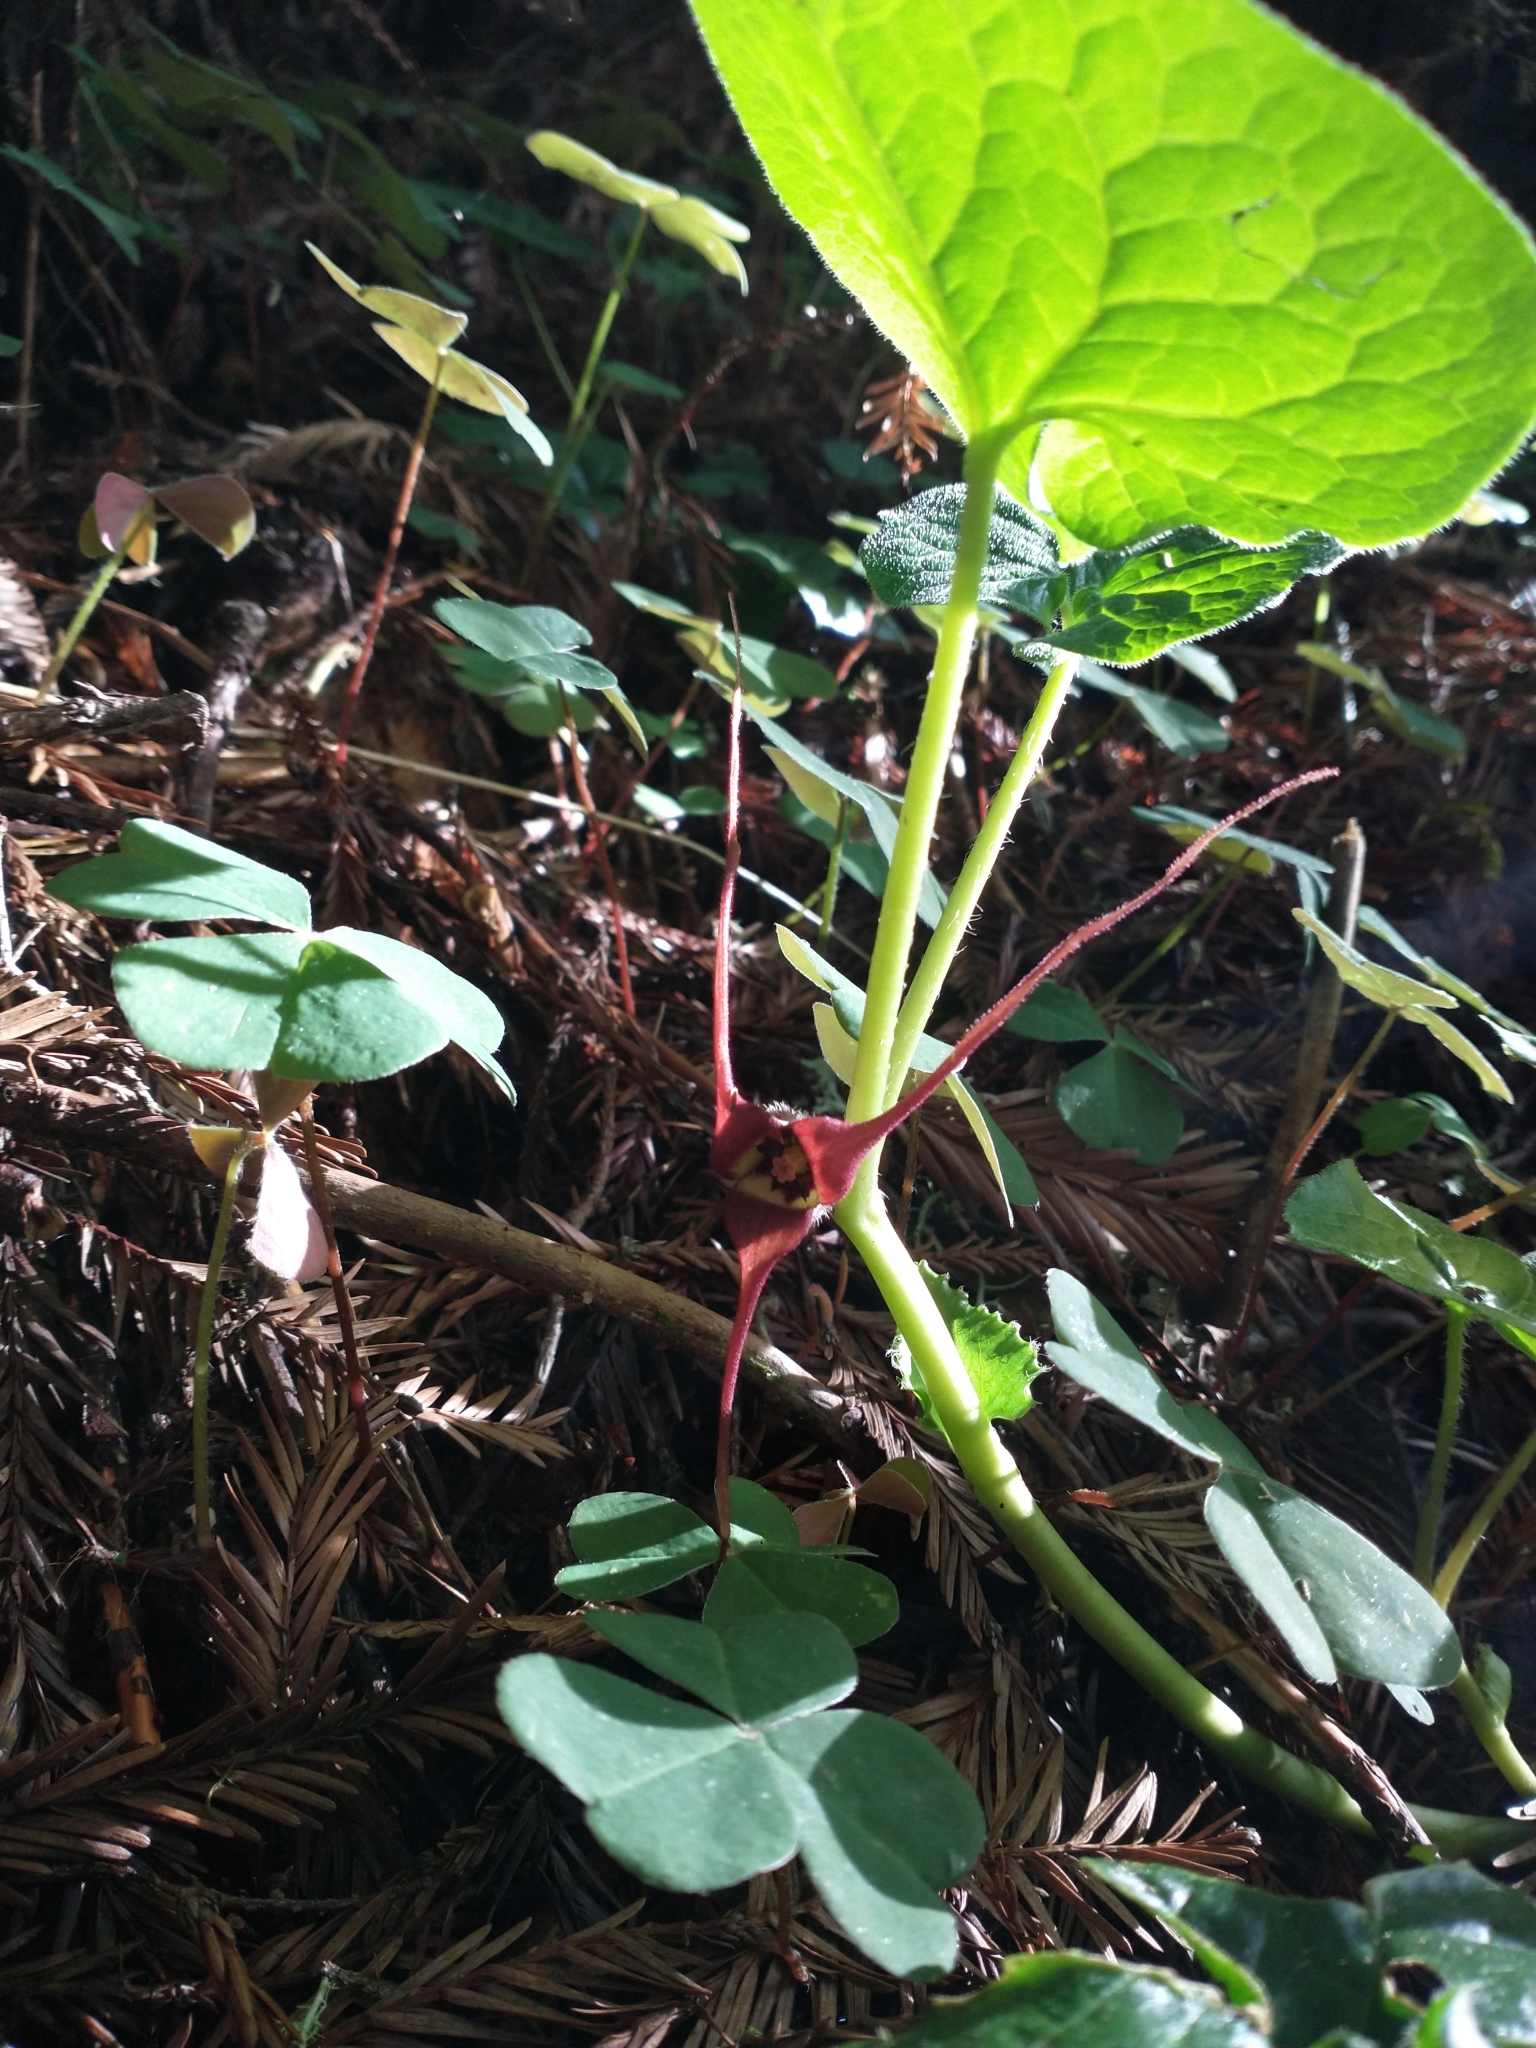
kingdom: Plantae
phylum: Tracheophyta
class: Magnoliopsida
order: Piperales
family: Aristolochiaceae
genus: Asarum
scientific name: Asarum caudatum
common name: Wild ginger
